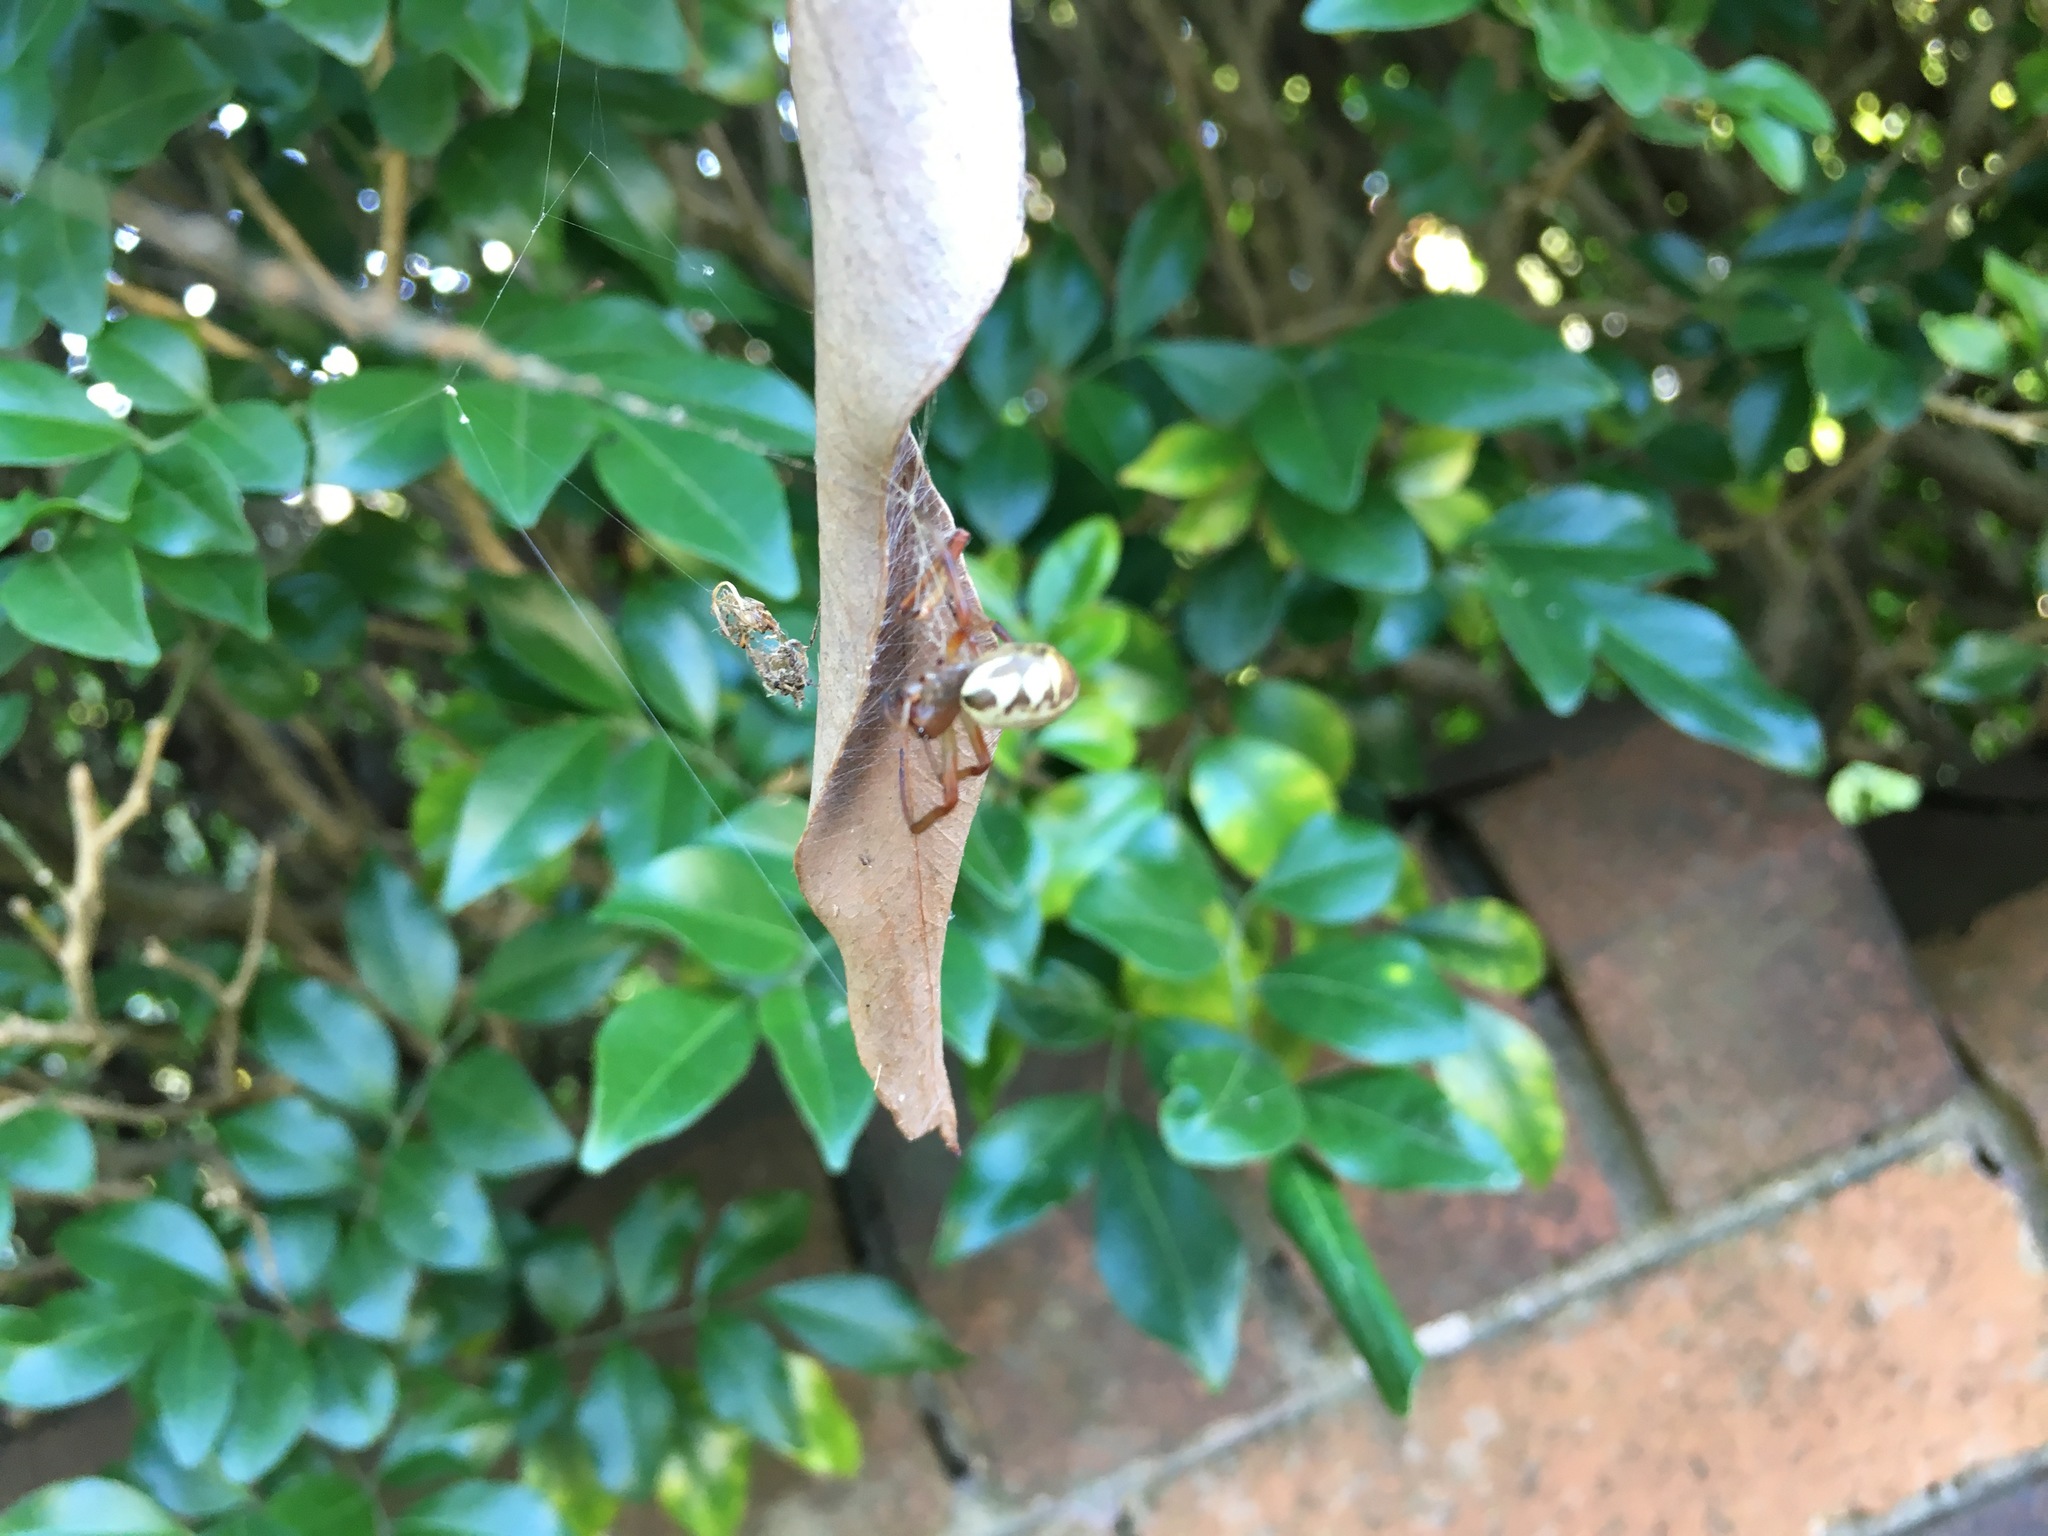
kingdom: Animalia
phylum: Arthropoda
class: Arachnida
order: Araneae
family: Araneidae
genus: Phonognatha
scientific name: Phonognatha graeffei
